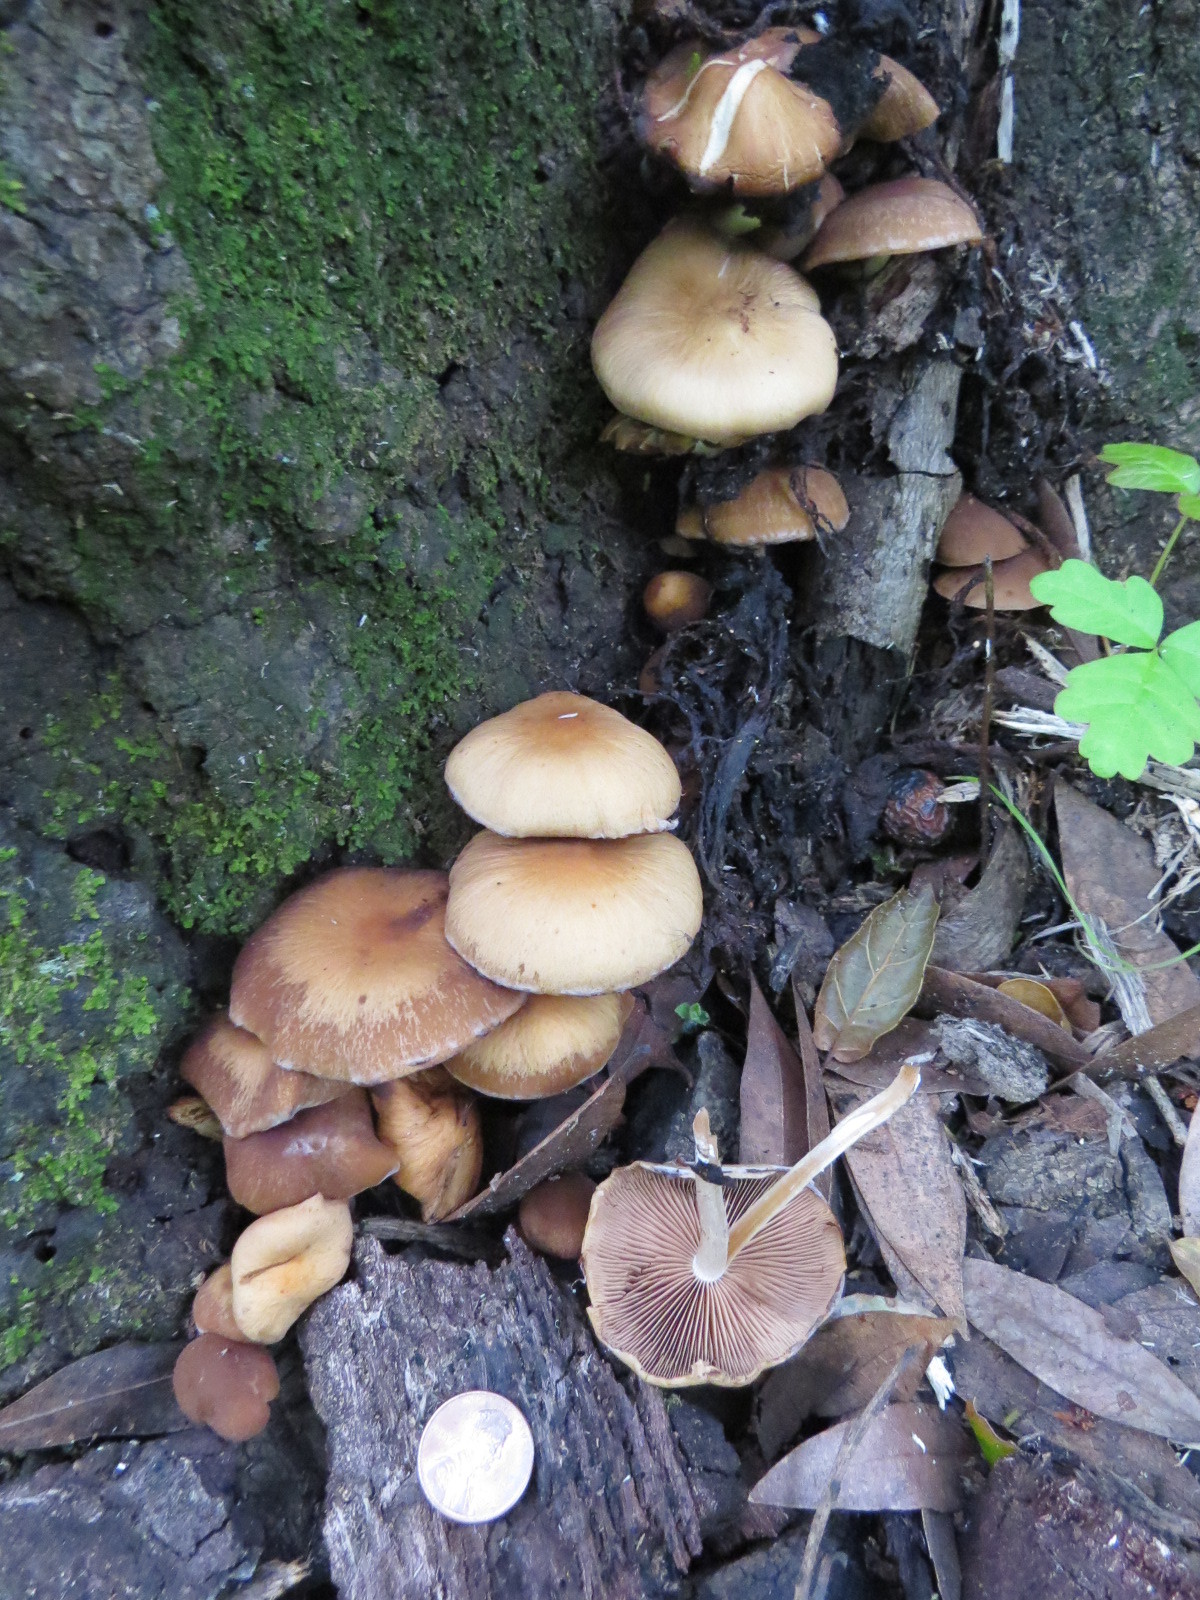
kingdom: Fungi
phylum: Basidiomycota
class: Agaricomycetes
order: Agaricales
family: Psathyrellaceae
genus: Psathyrella
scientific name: Psathyrella piluliformis
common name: Common stump brittlestem
